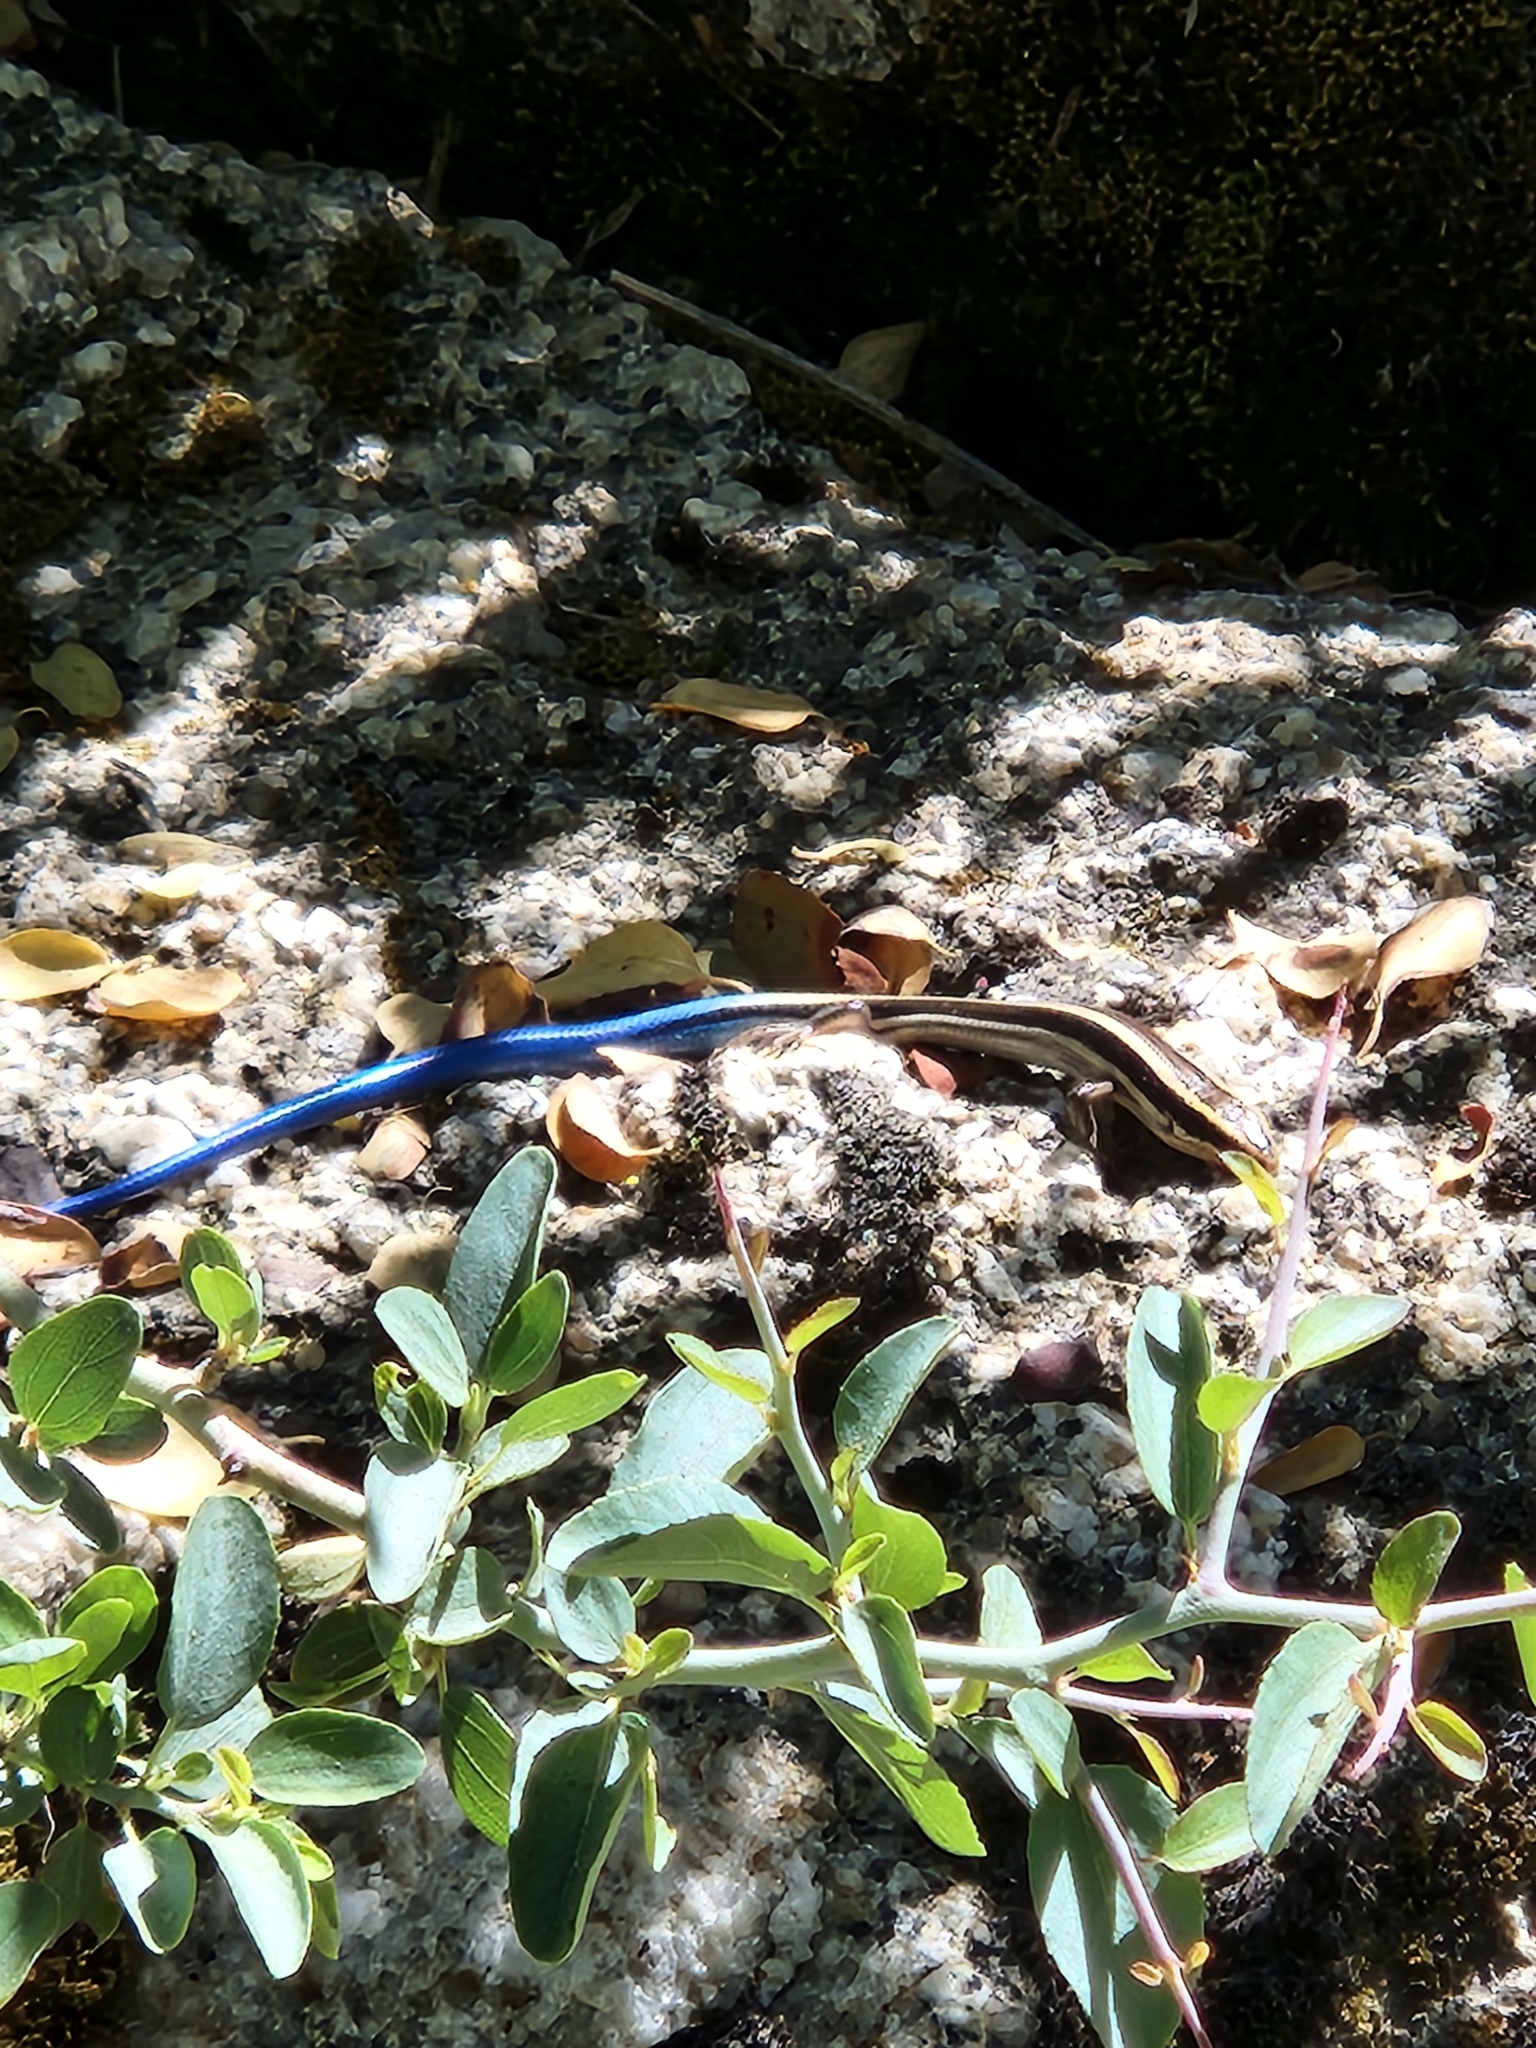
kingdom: Animalia
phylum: Chordata
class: Squamata
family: Scincidae
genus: Plestiodon
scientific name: Plestiodon skiltonianus
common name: Coronado island skink [interparietalis]
